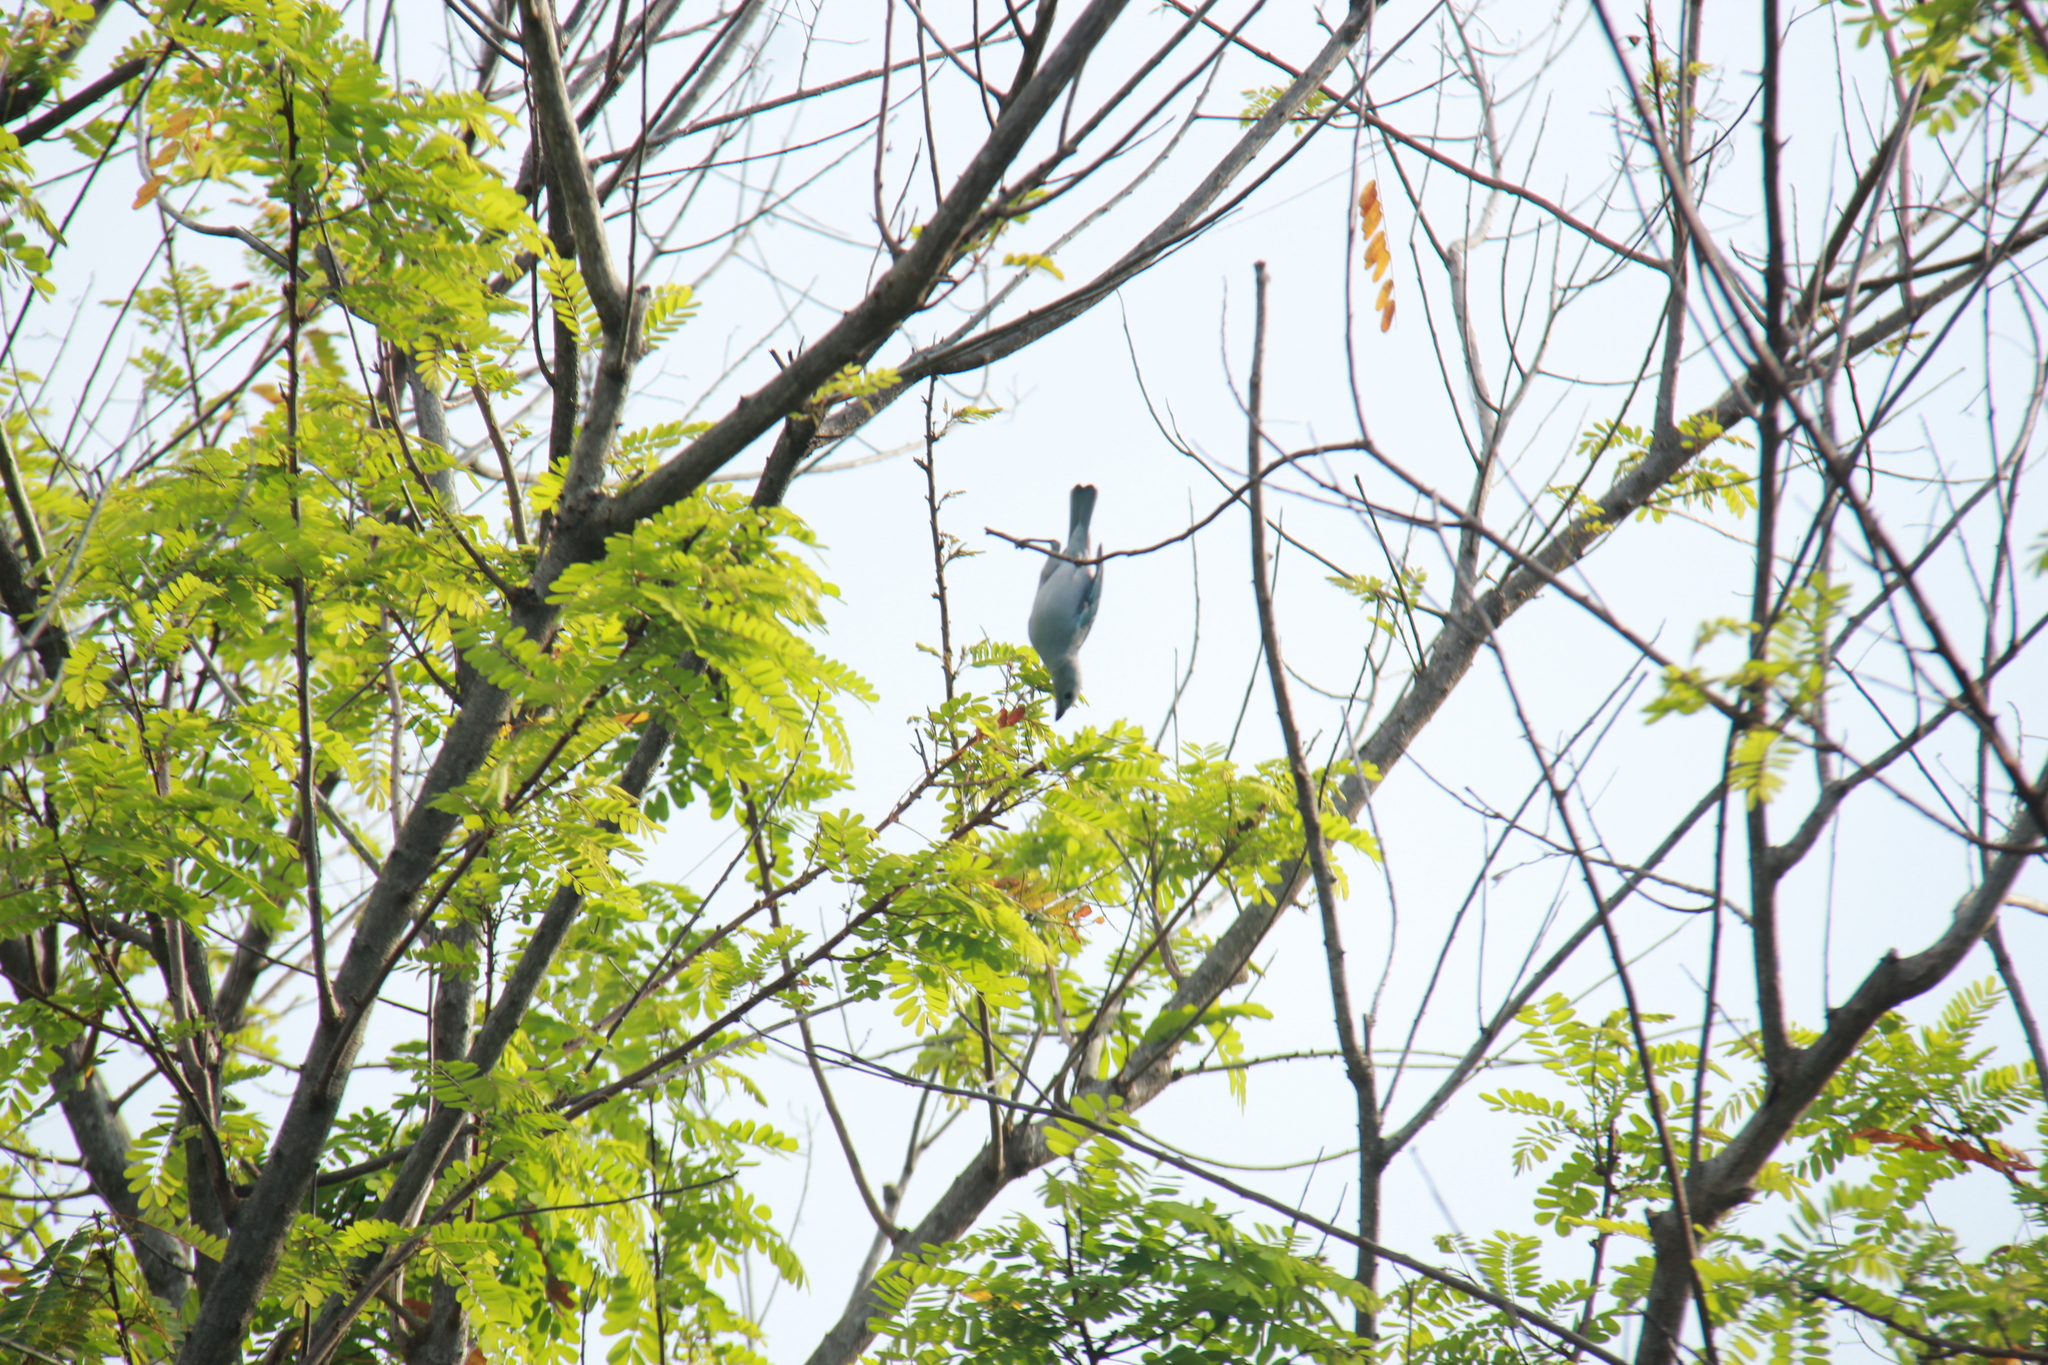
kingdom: Animalia
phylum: Chordata
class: Aves
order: Passeriformes
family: Thraupidae
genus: Thraupis
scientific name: Thraupis episcopus
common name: Blue-grey tanager
